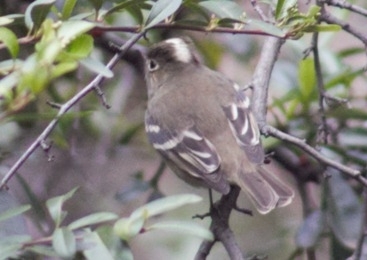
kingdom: Animalia
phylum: Chordata
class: Aves
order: Passeriformes
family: Tyrannidae
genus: Elaenia
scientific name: Elaenia albiceps
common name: White-crested elaenia
